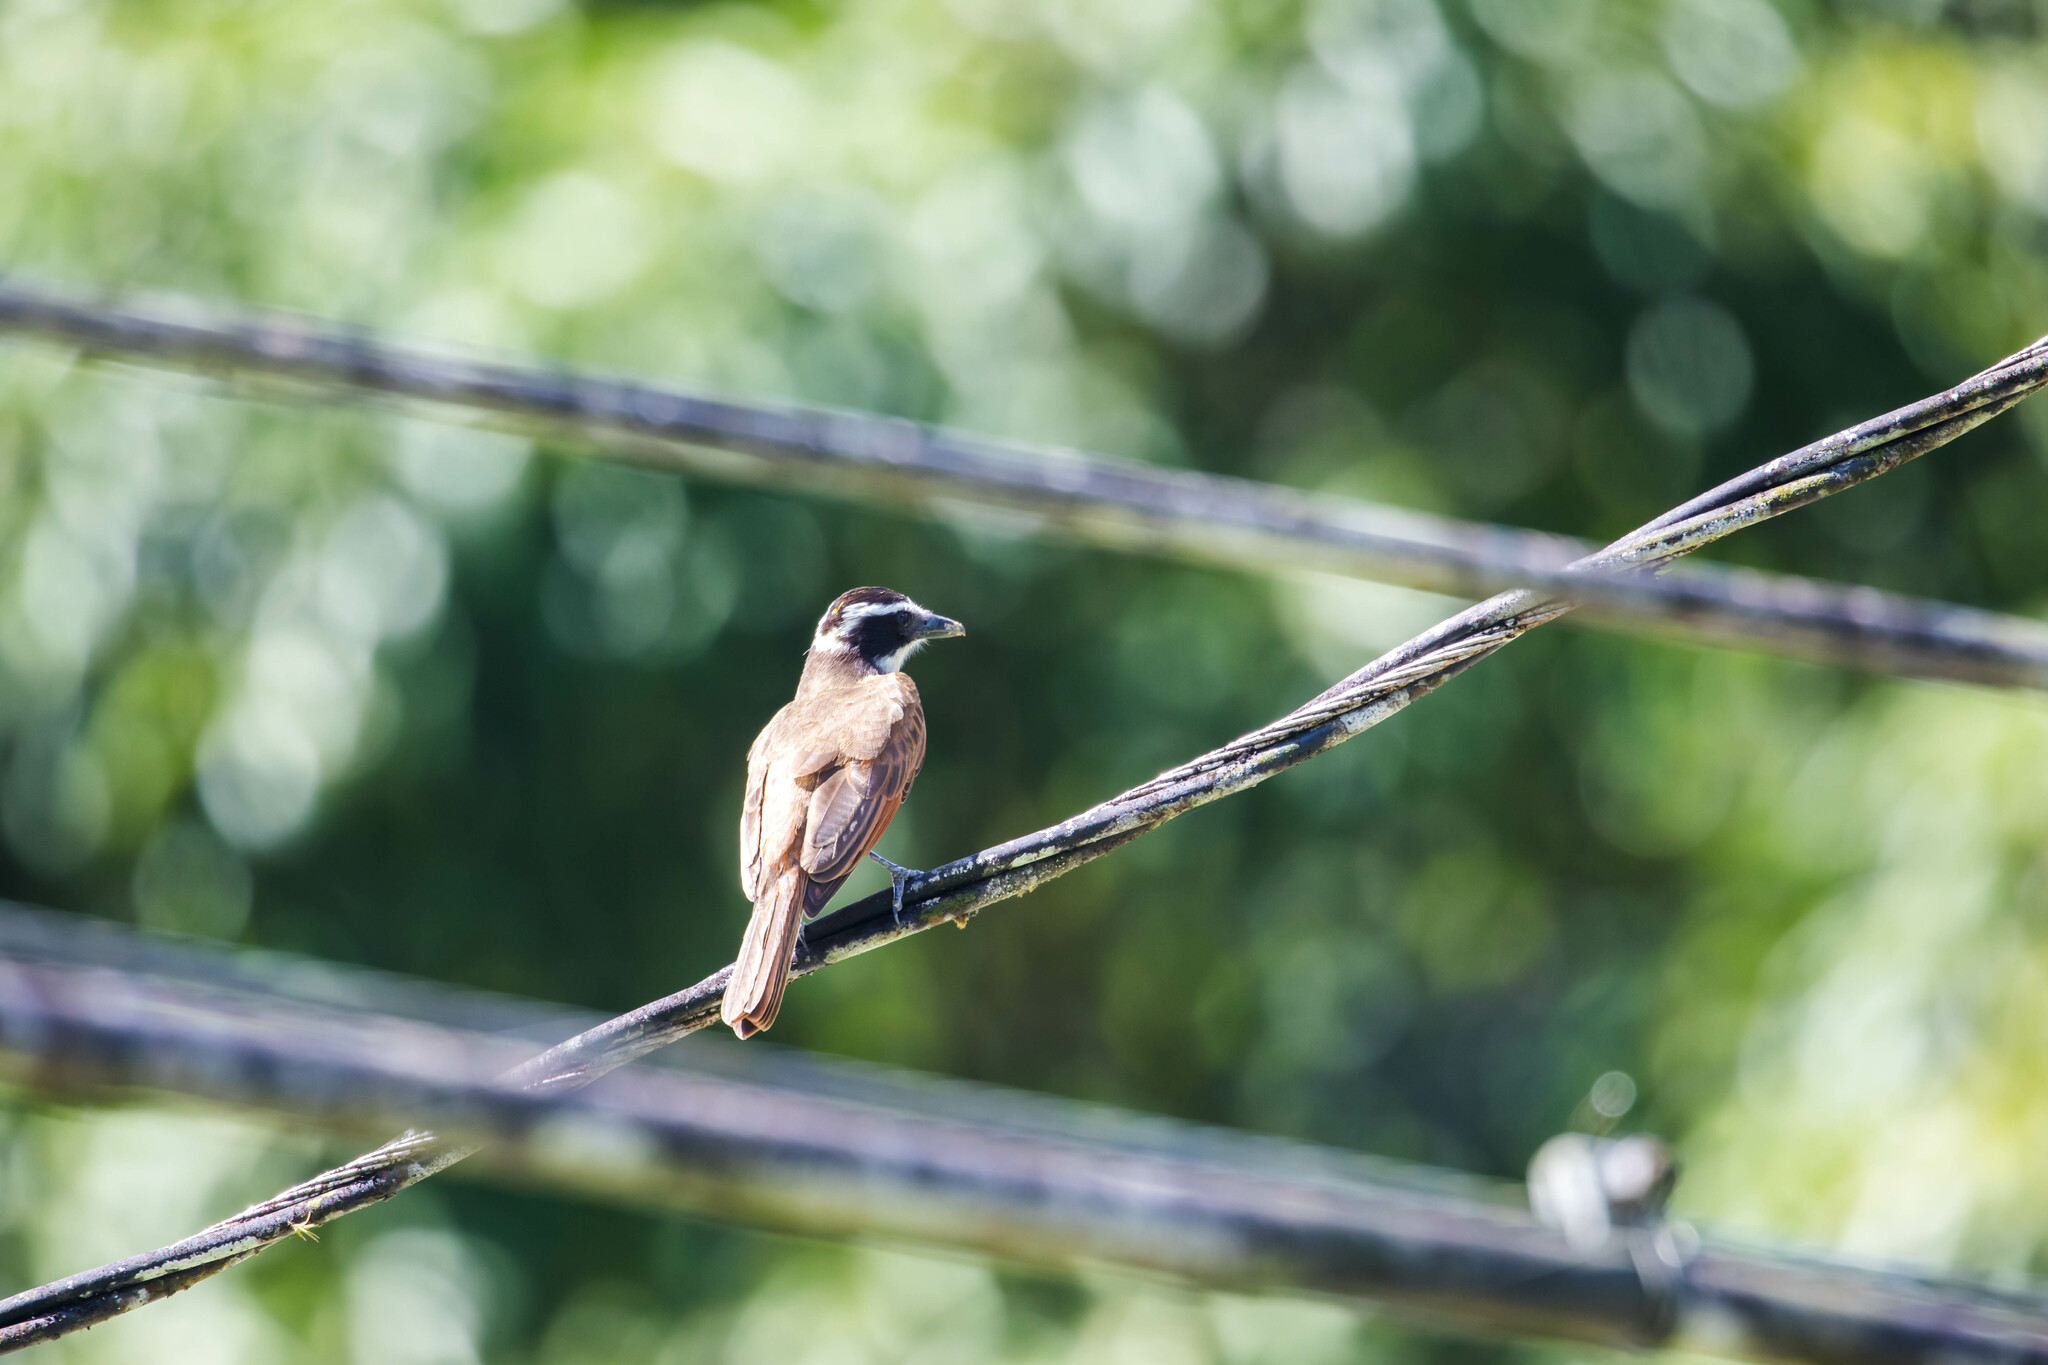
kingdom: Animalia
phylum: Chordata
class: Aves
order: Passeriformes
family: Tyrannidae
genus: Pitangus
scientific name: Pitangus sulphuratus
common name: Great kiskadee
